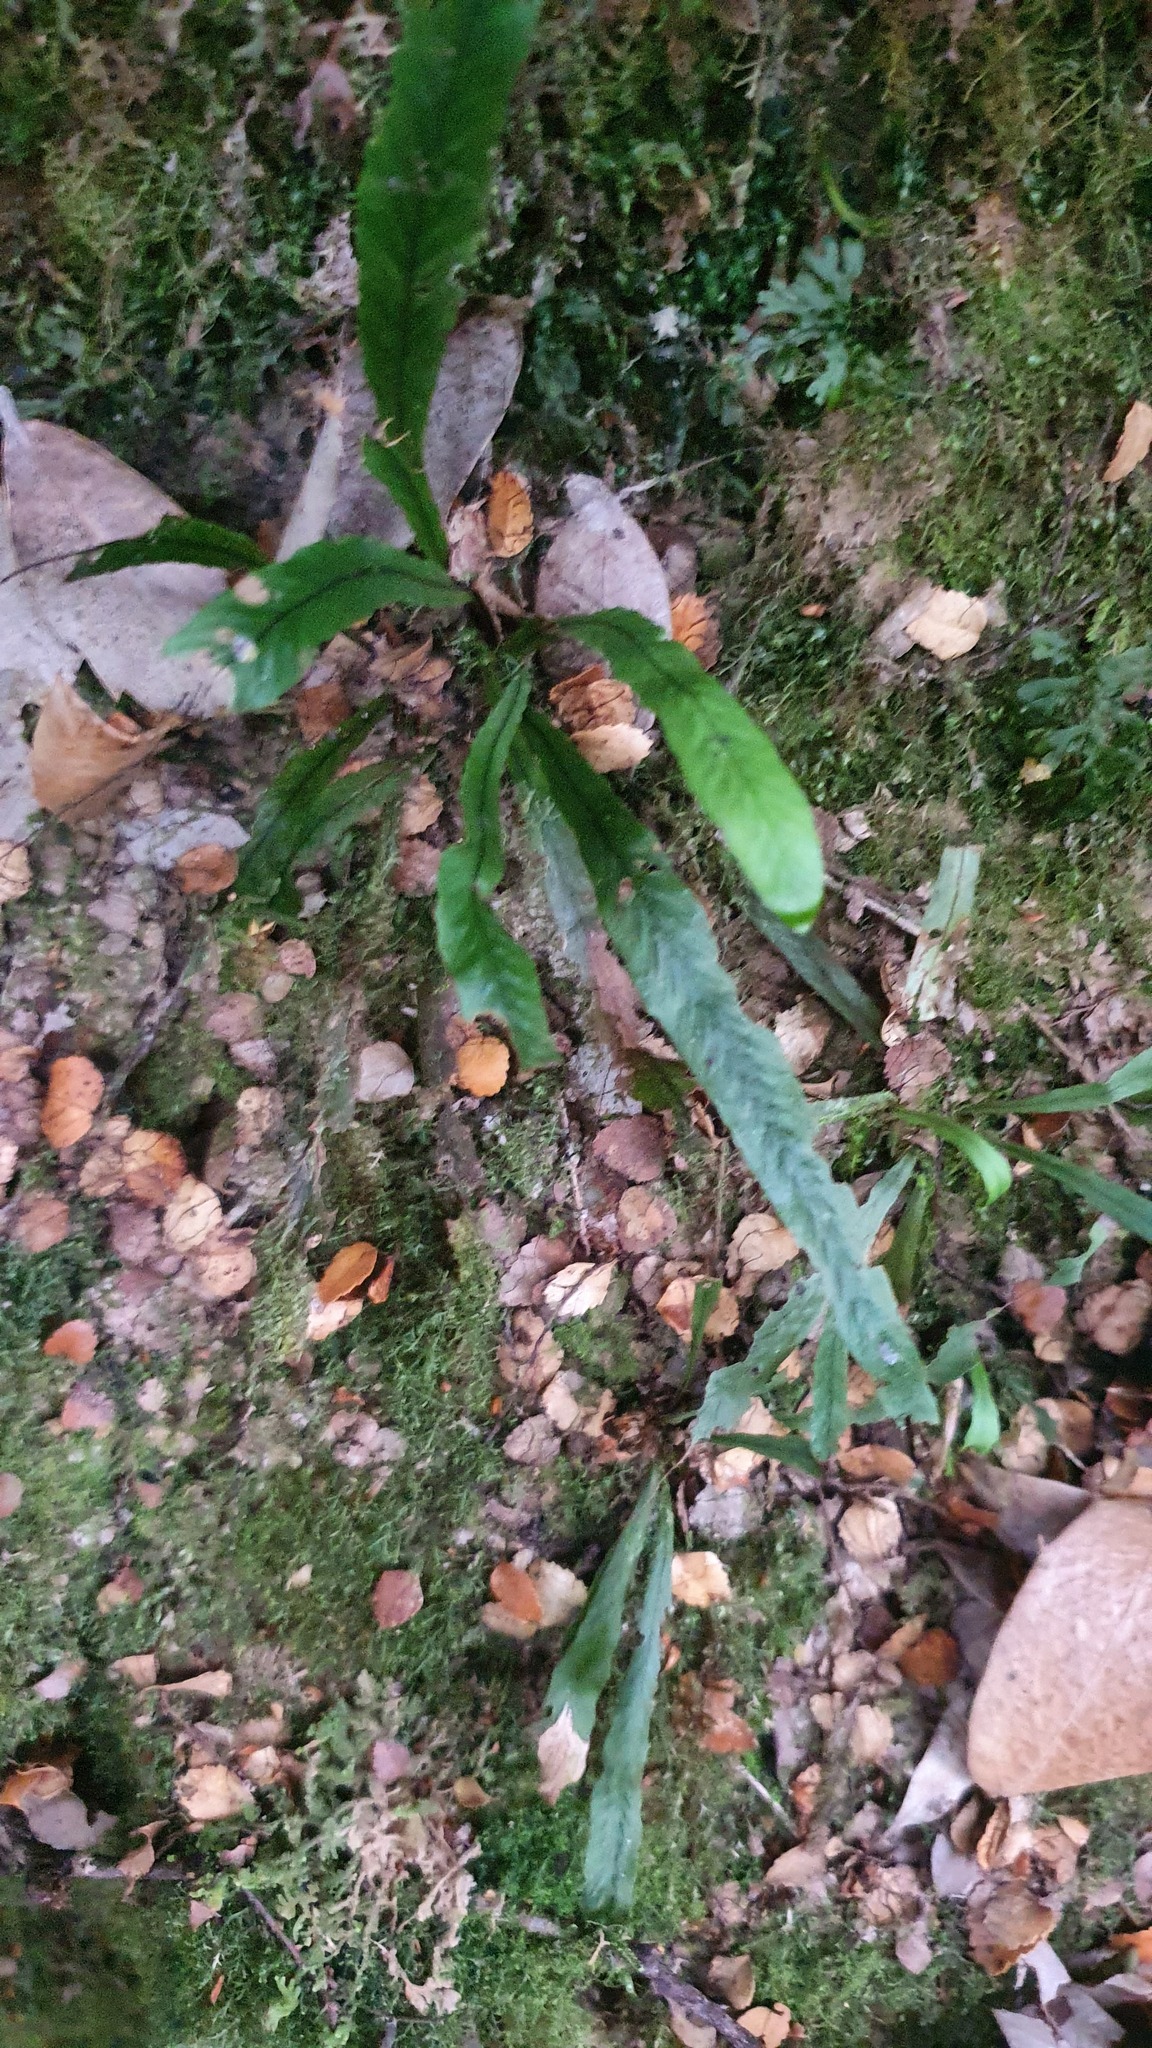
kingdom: Plantae
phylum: Tracheophyta
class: Polypodiopsida
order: Polypodiales
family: Polypodiaceae
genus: Notogrammitis
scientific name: Notogrammitis billardierei
